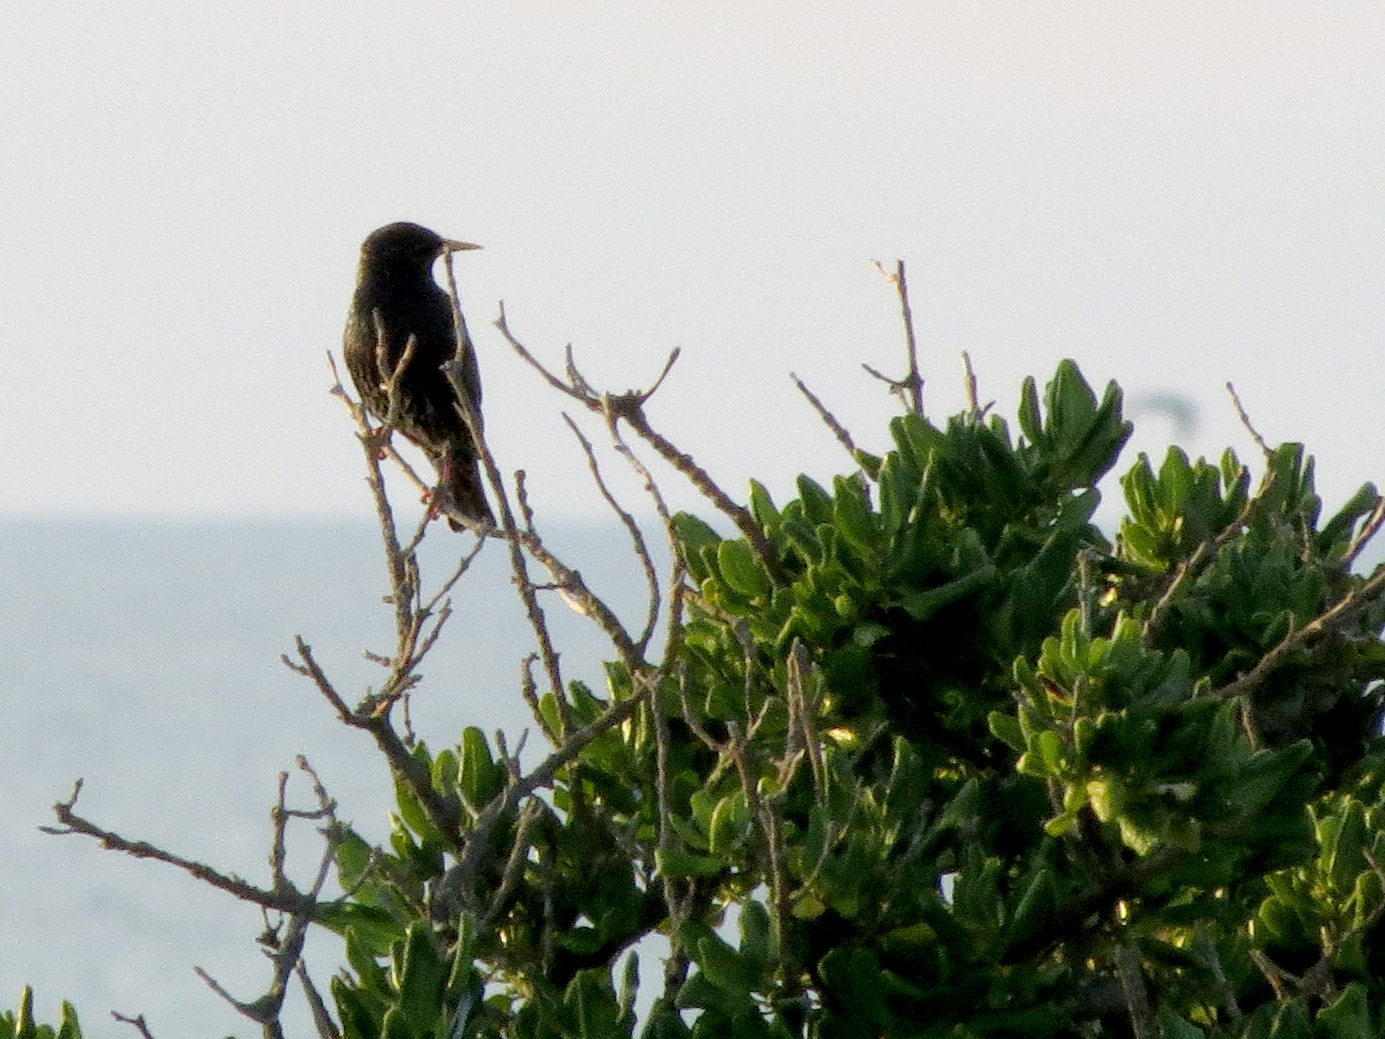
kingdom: Animalia
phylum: Chordata
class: Aves
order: Passeriformes
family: Sturnidae
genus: Sturnus
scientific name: Sturnus vulgaris
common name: Common starling
